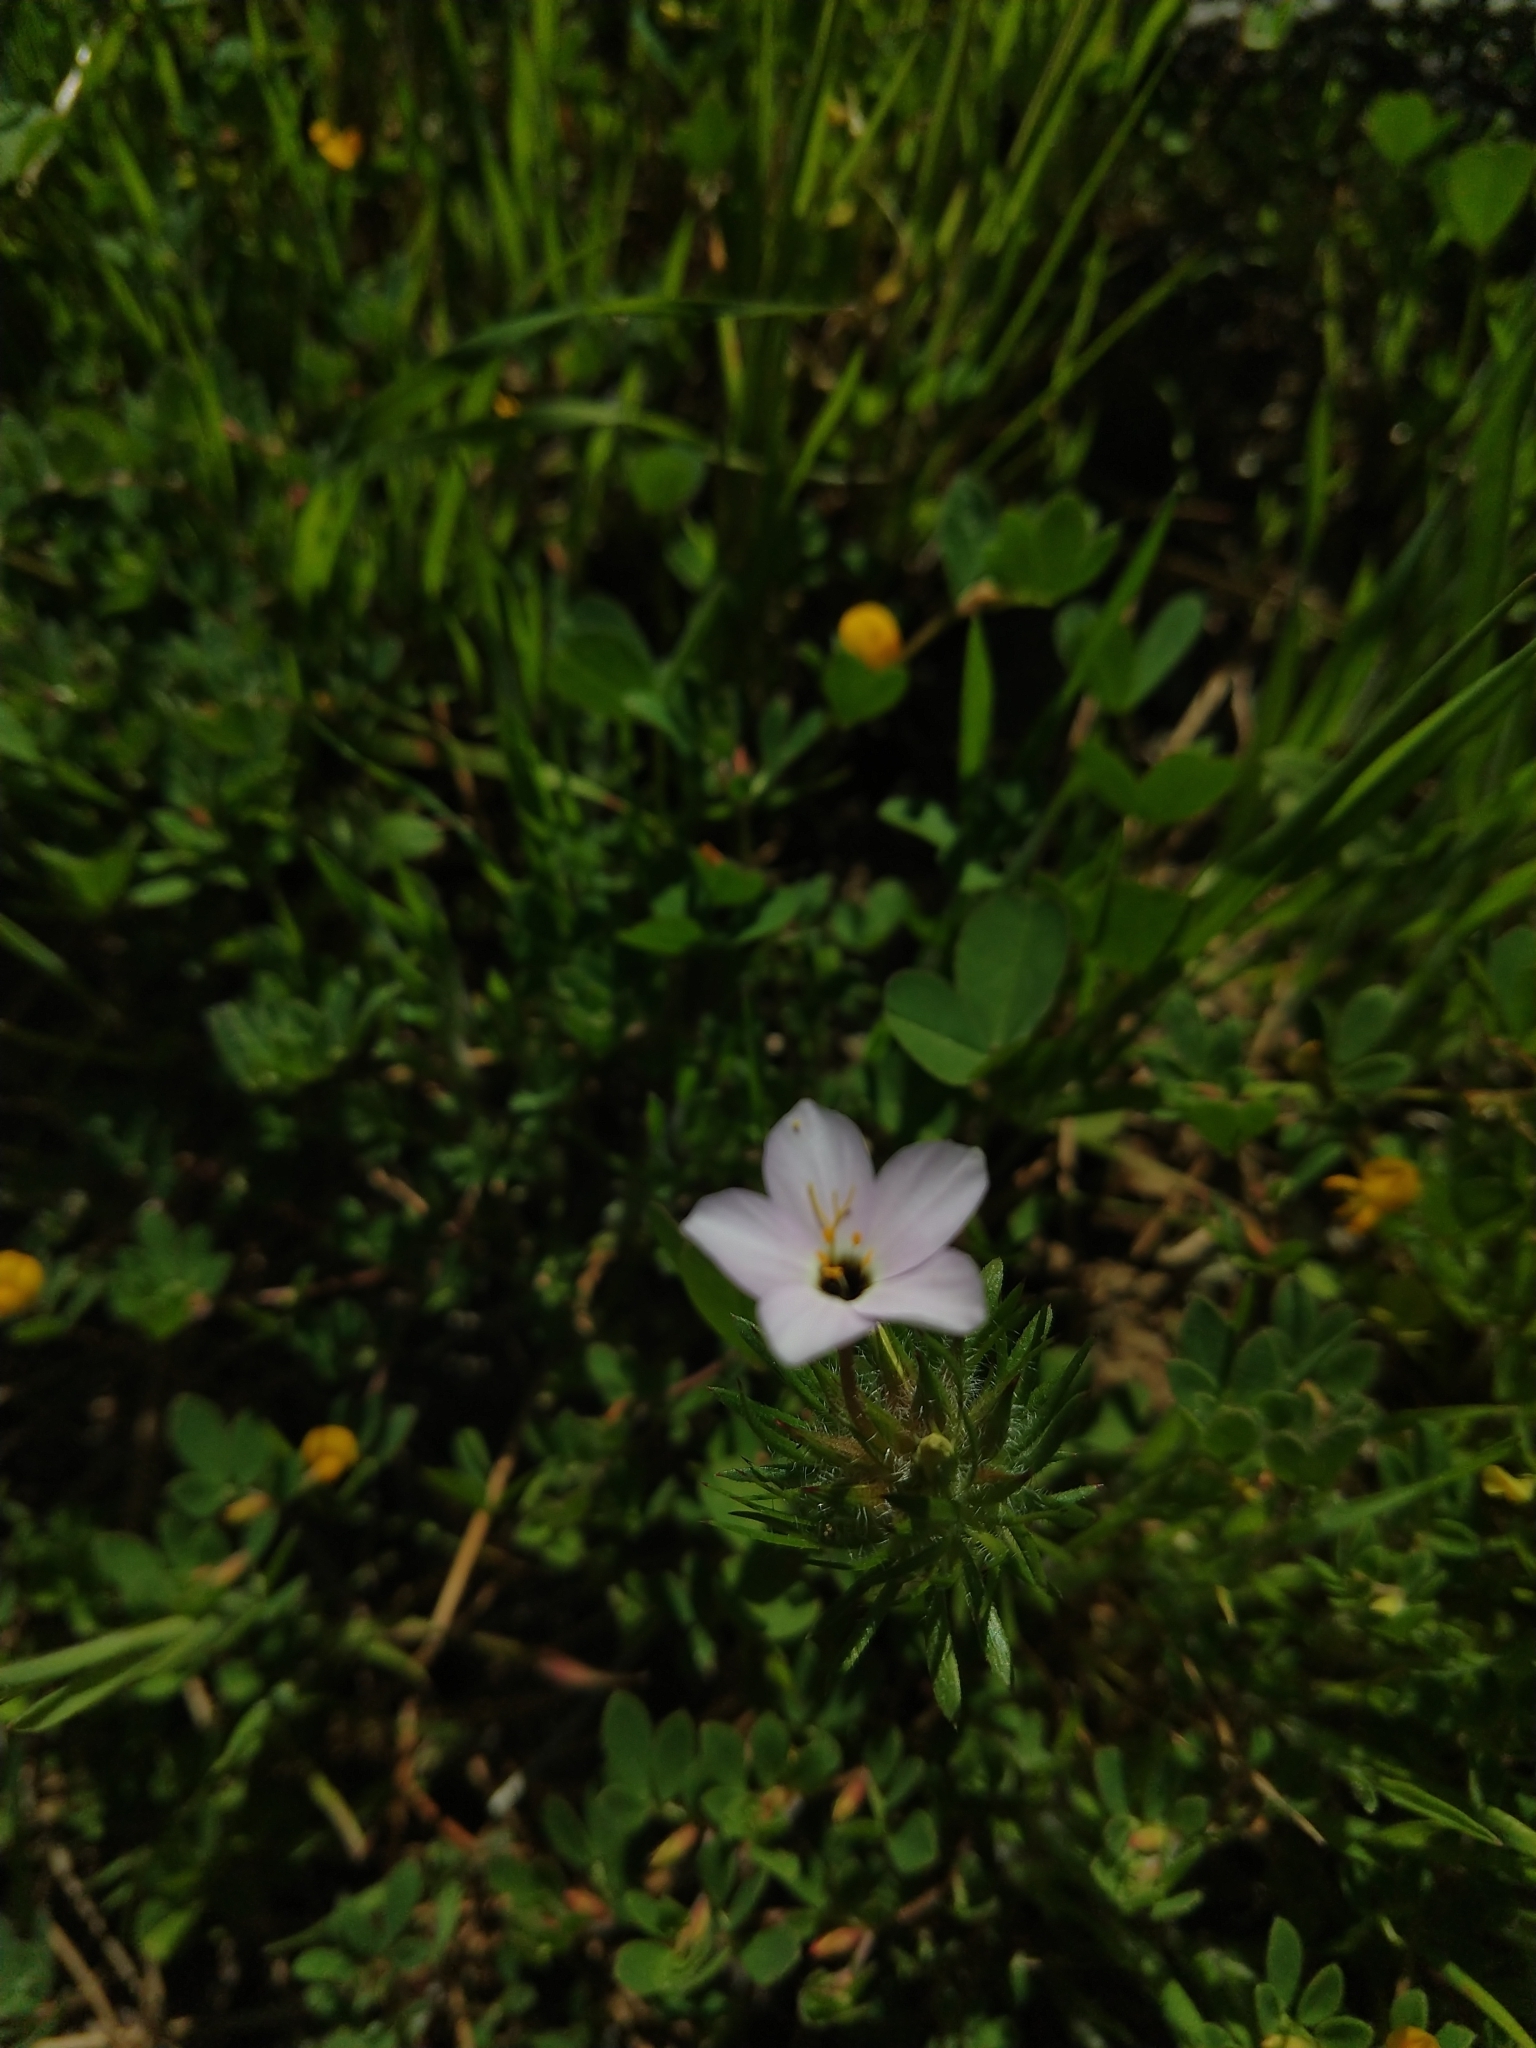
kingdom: Plantae
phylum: Tracheophyta
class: Magnoliopsida
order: Ericales
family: Polemoniaceae
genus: Leptosiphon
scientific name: Leptosiphon androsaceus
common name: False babystars
